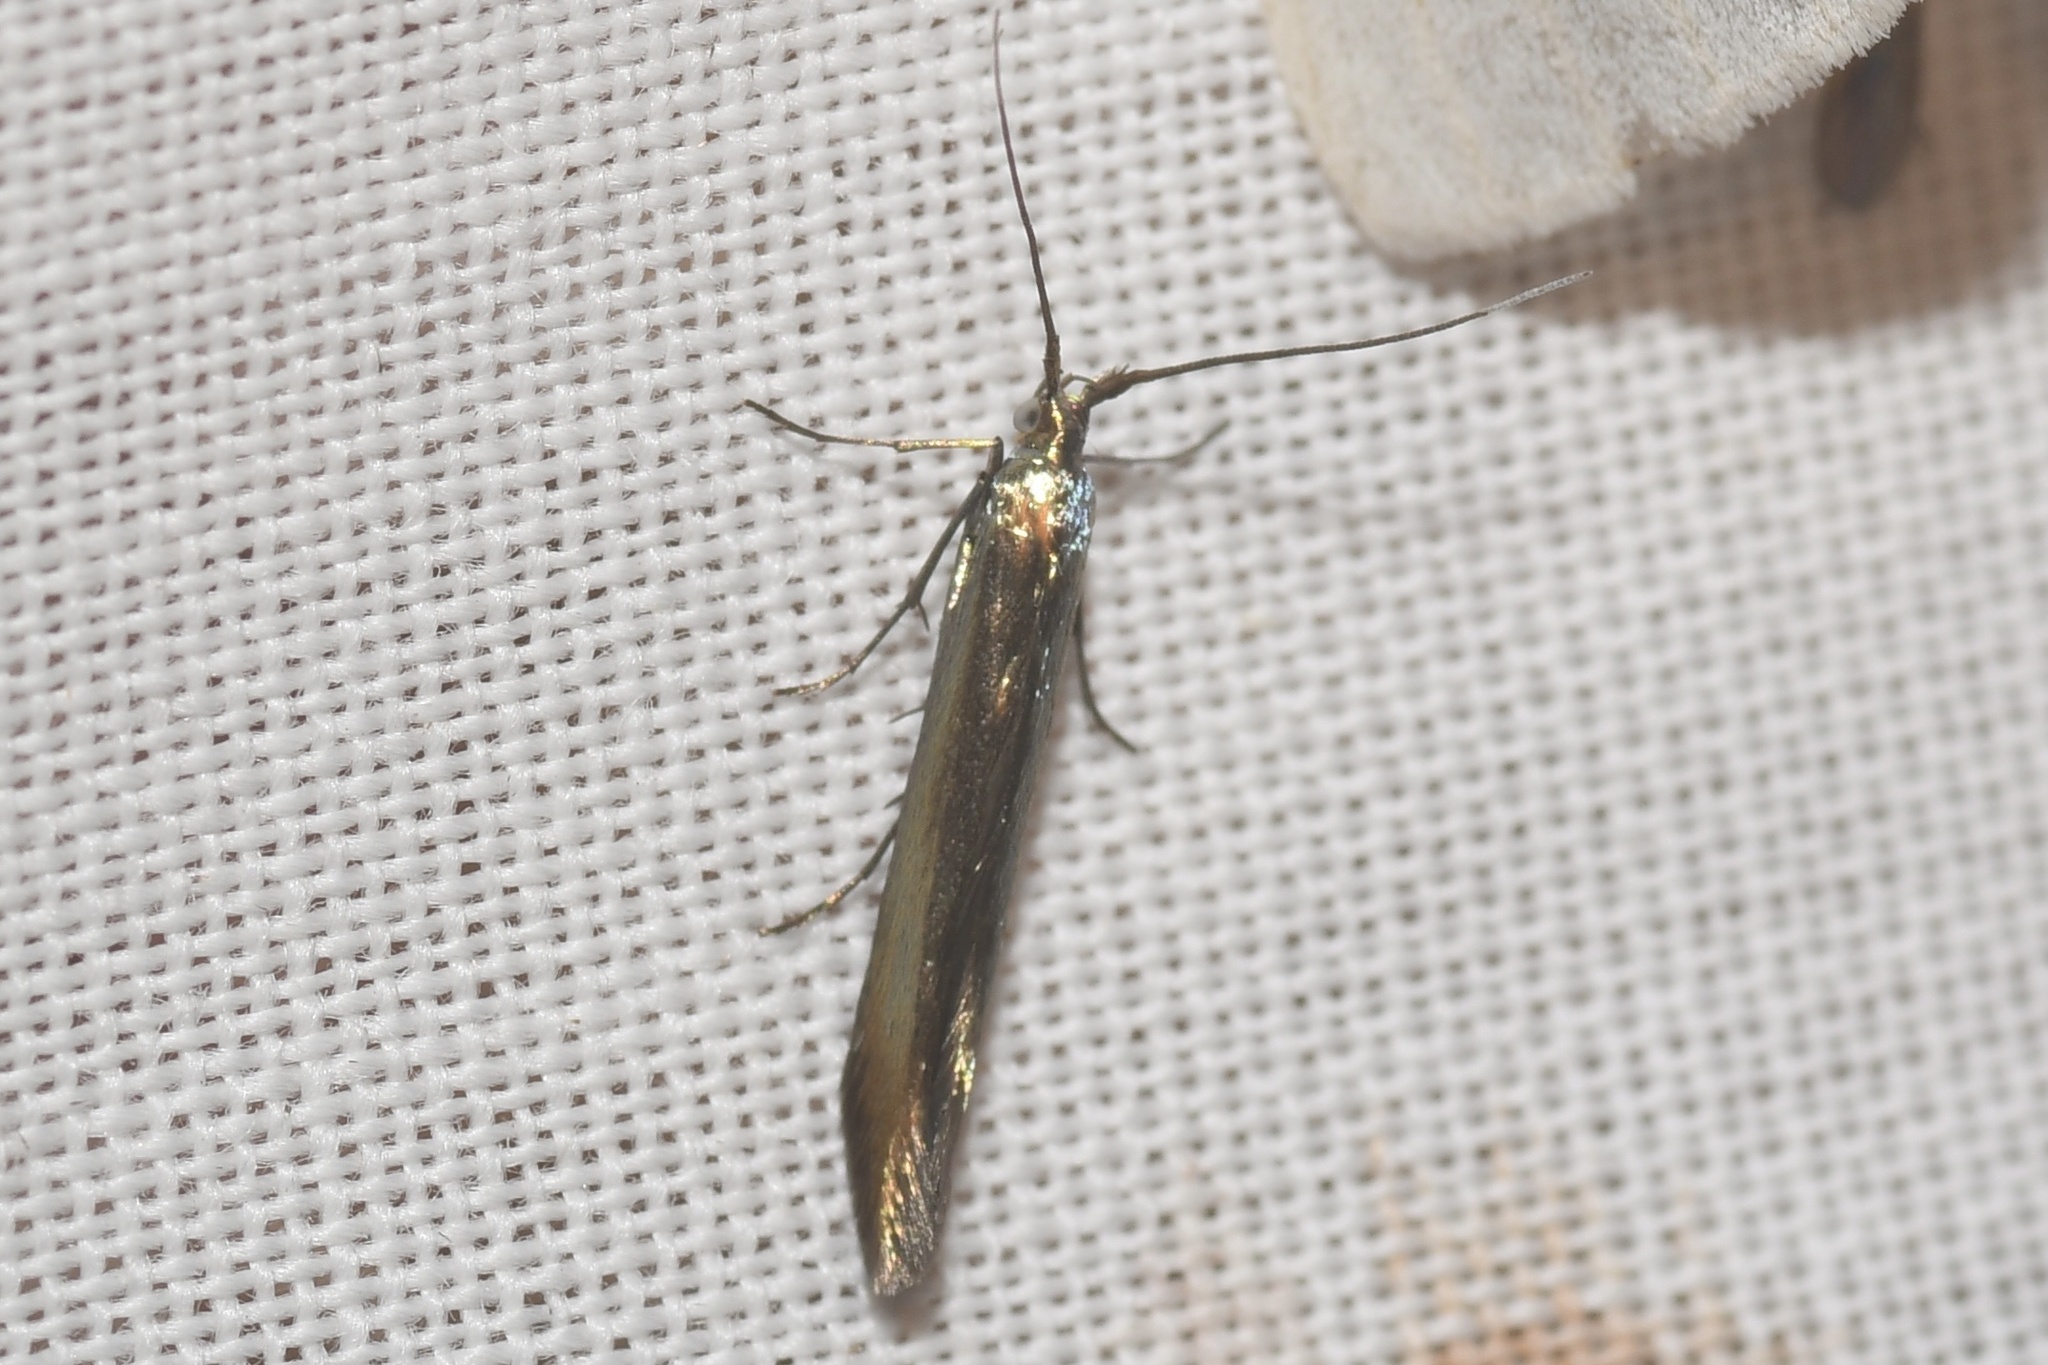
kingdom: Animalia
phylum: Arthropoda
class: Insecta
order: Lepidoptera
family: Coleophoridae
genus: Coleophora
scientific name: Coleophora trifolii
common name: Large clover case-bearer
